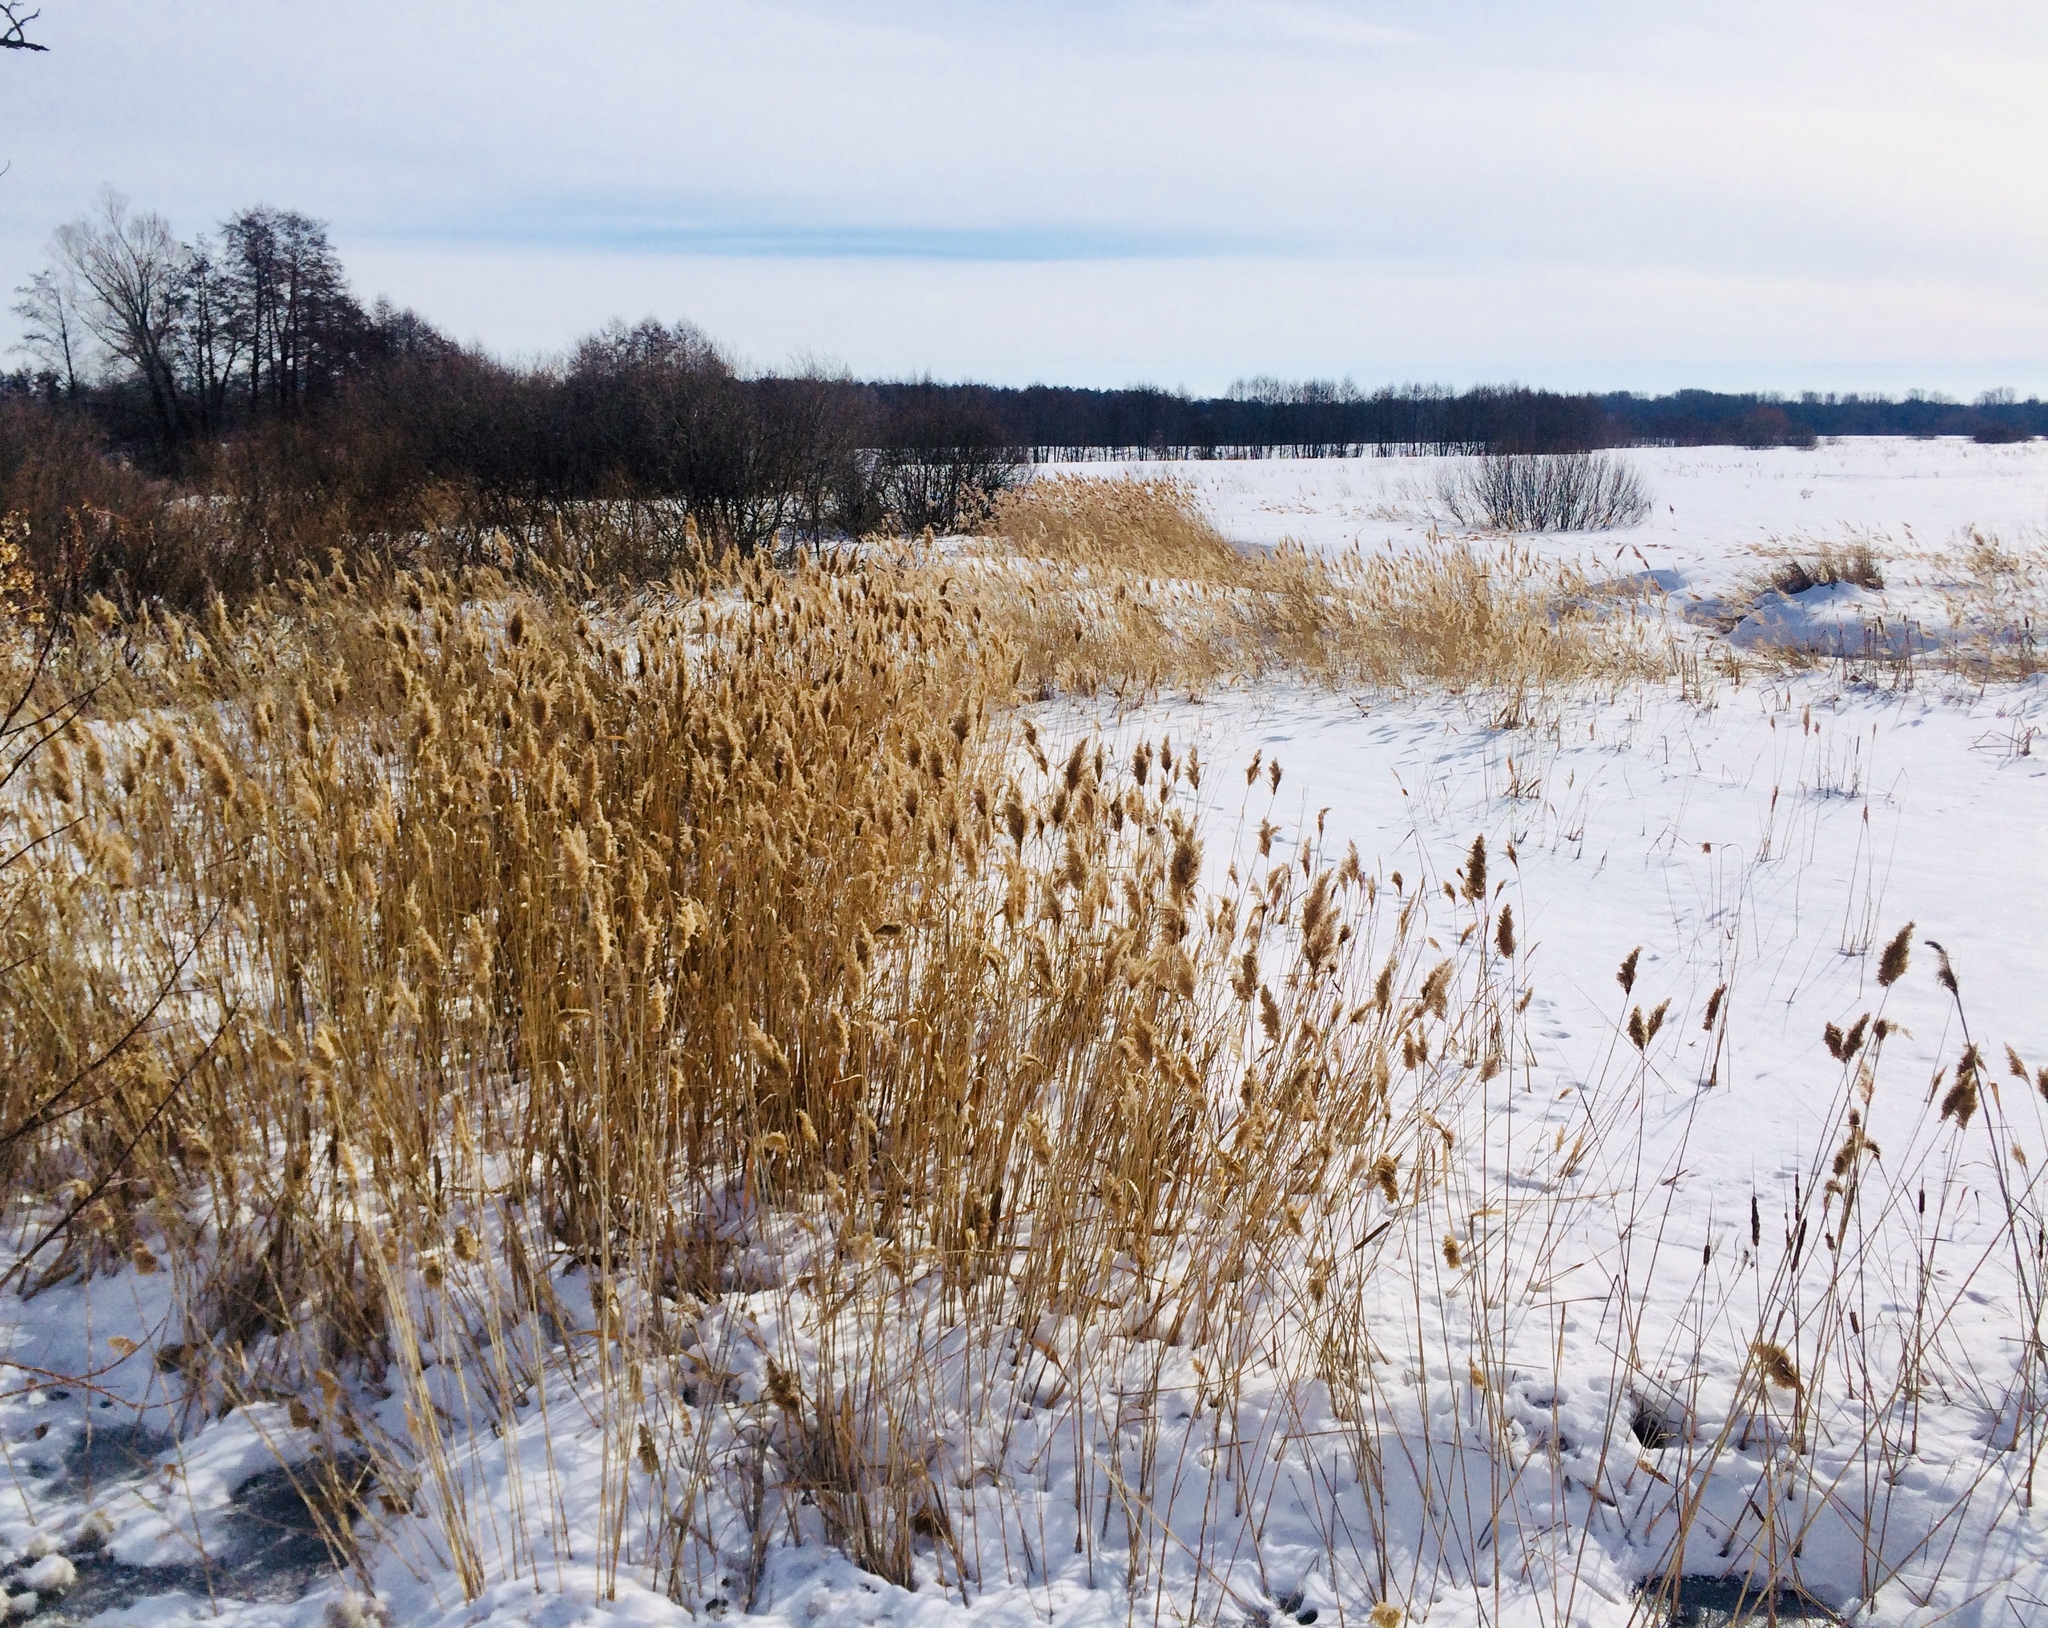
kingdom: Plantae
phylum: Tracheophyta
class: Liliopsida
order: Poales
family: Poaceae
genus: Phragmites
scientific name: Phragmites australis
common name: Common reed
